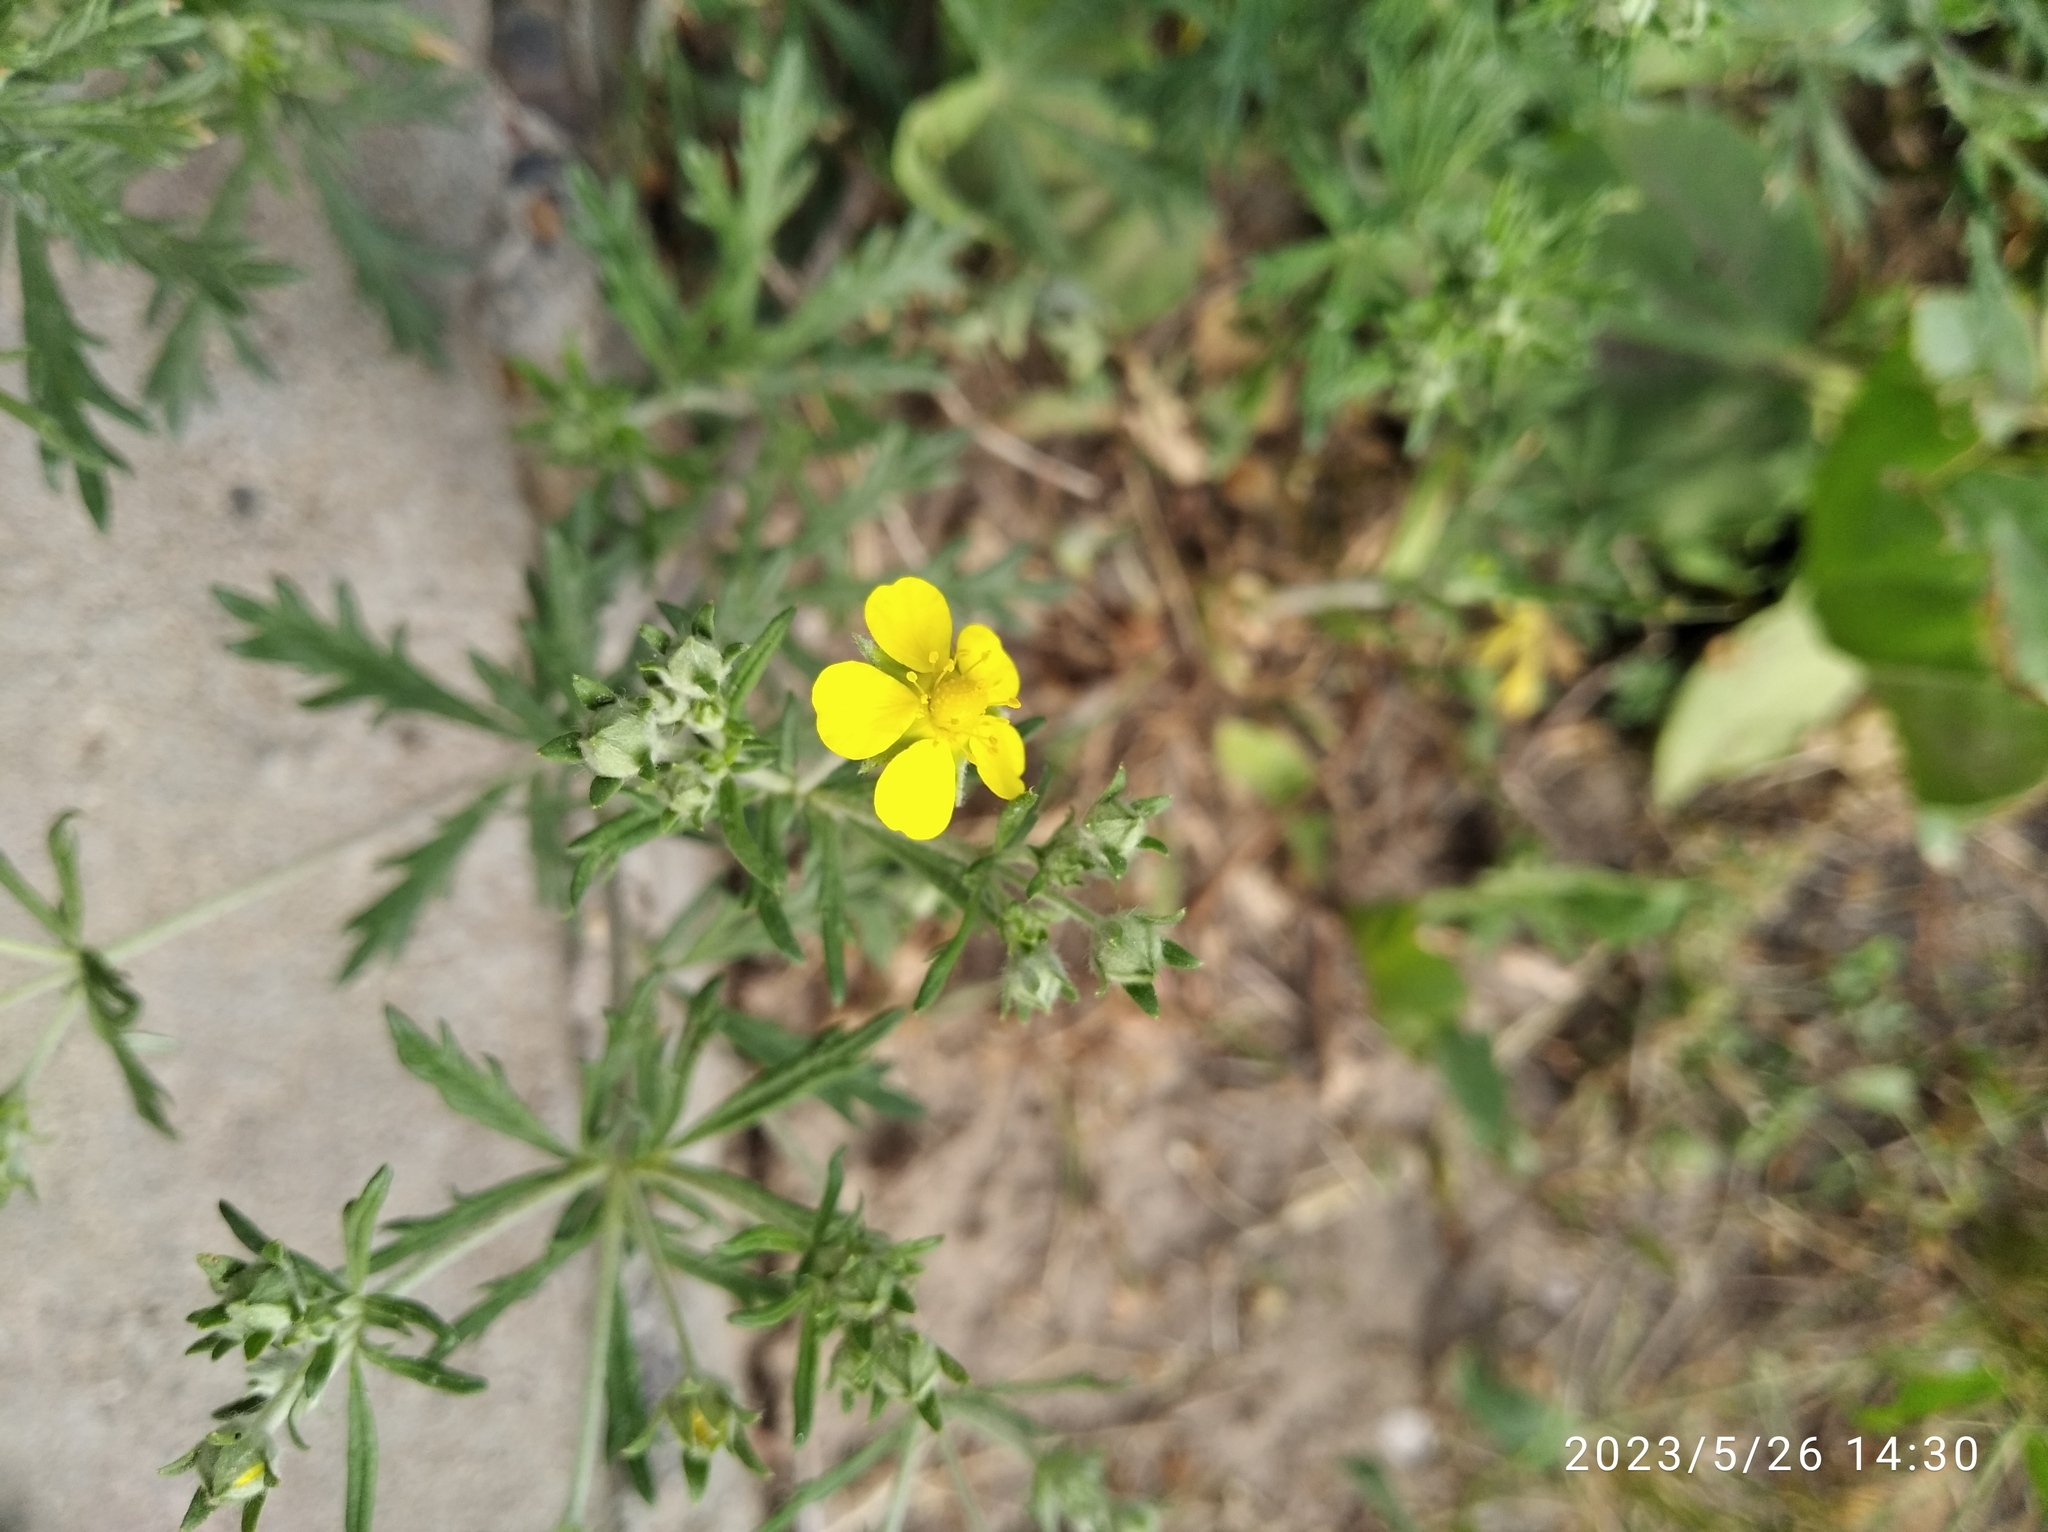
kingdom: Plantae
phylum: Tracheophyta
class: Magnoliopsida
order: Rosales
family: Rosaceae
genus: Potentilla
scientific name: Potentilla argentea
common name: Hoary cinquefoil
